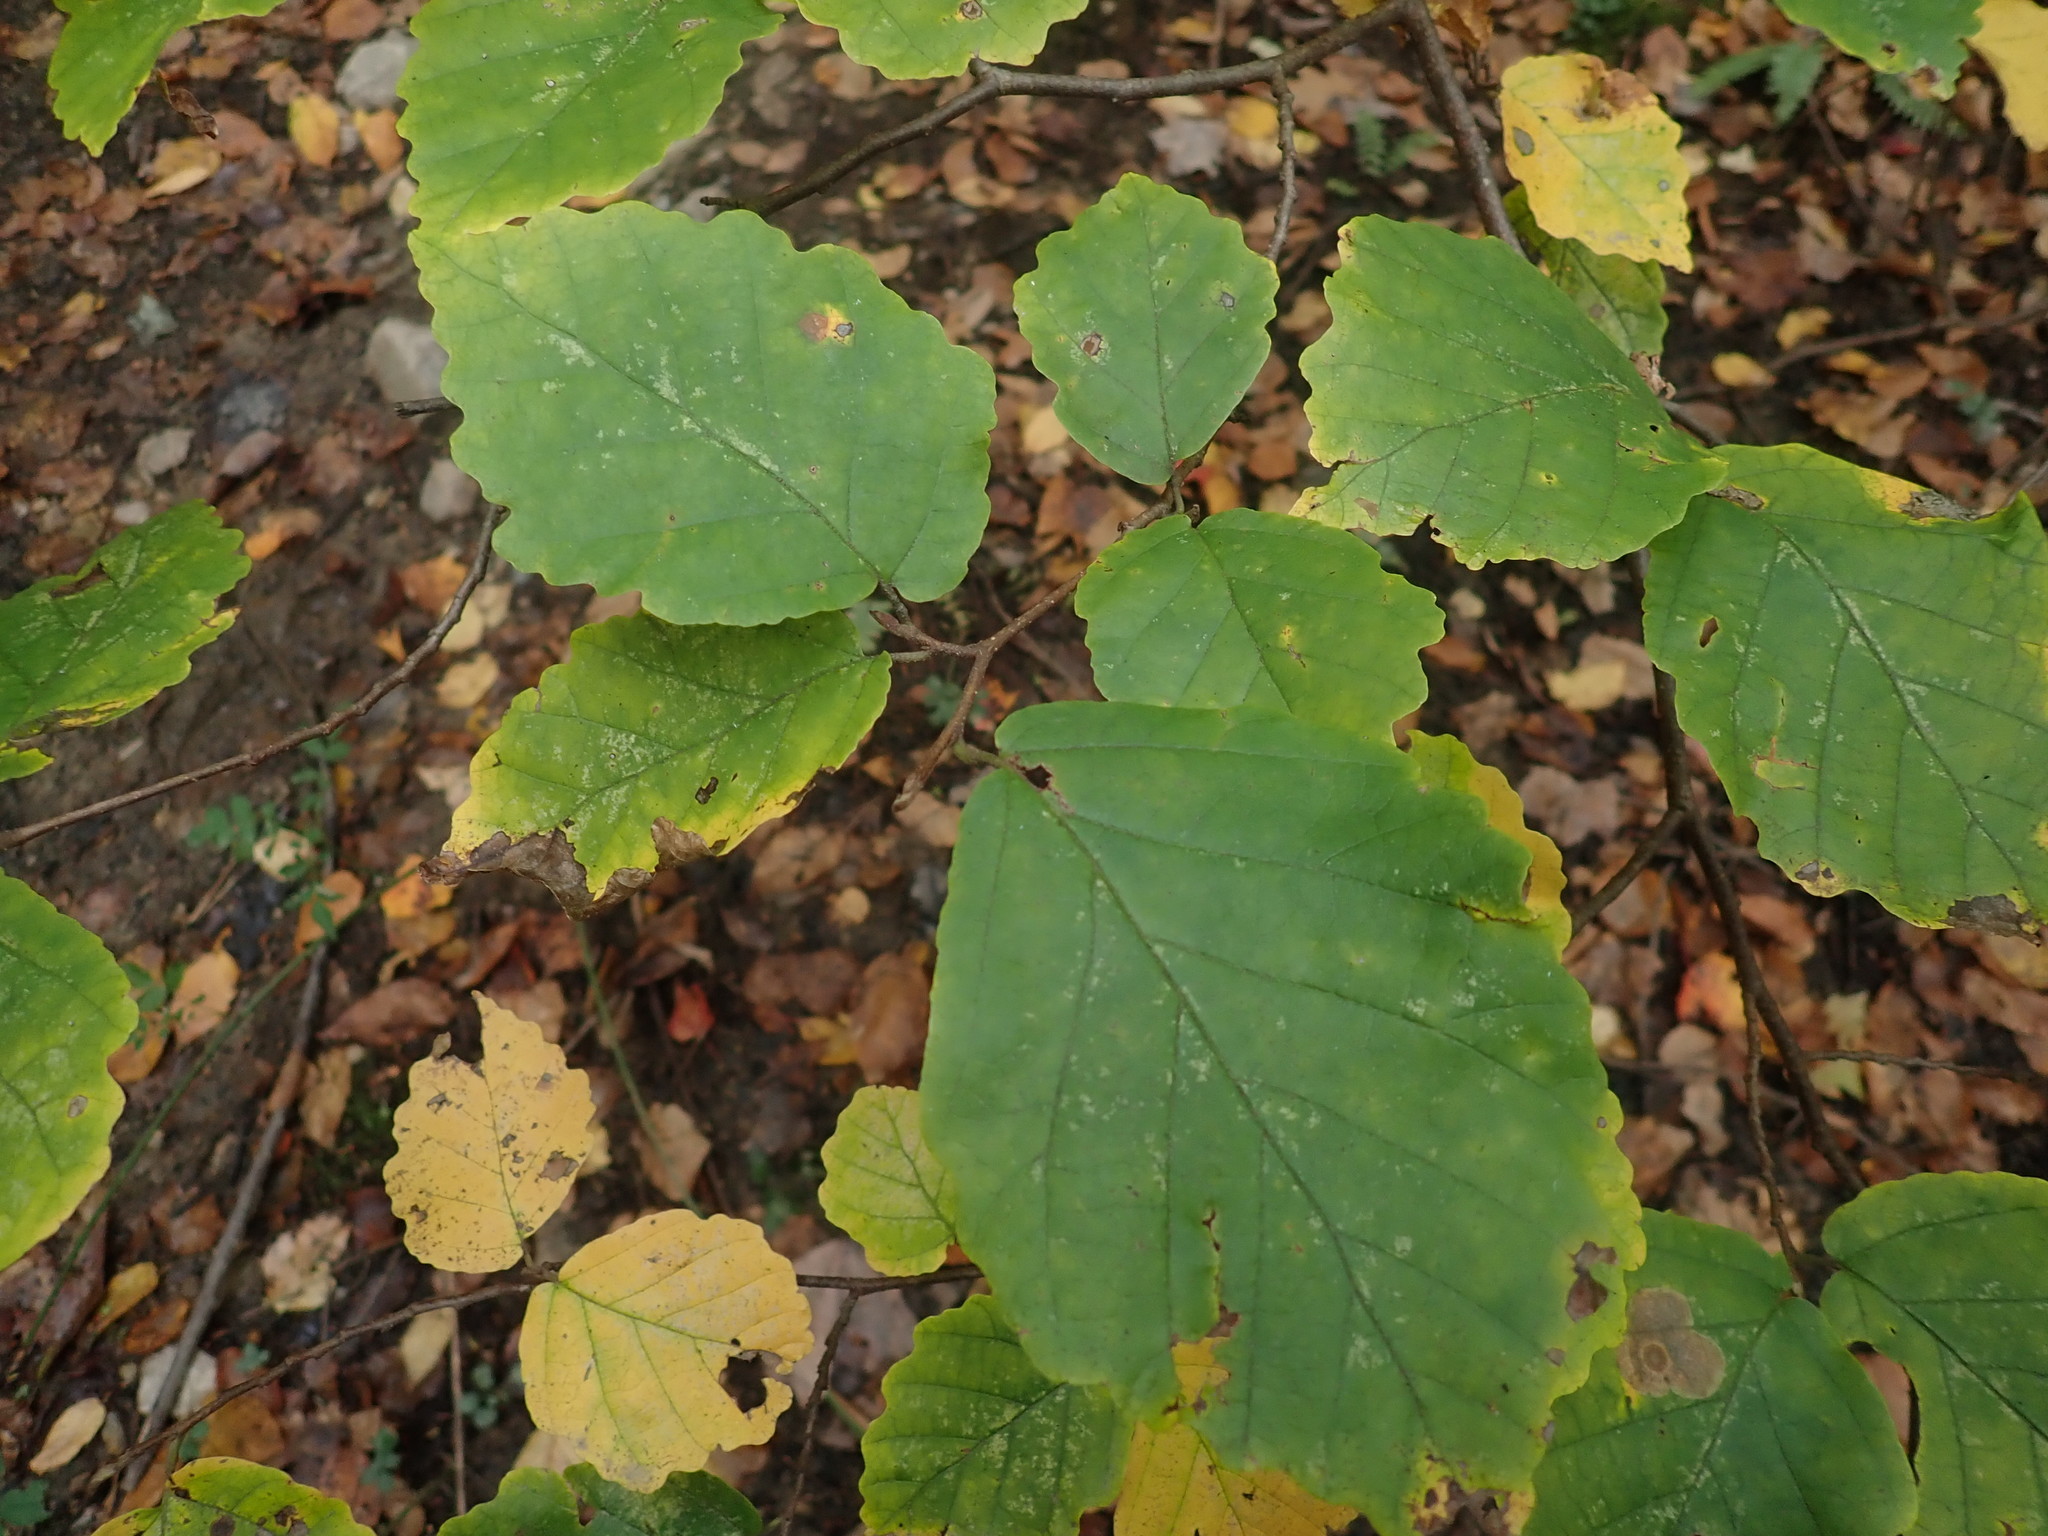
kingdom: Plantae
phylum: Tracheophyta
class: Magnoliopsida
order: Saxifragales
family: Hamamelidaceae
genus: Hamamelis
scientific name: Hamamelis virginiana
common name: Witch-hazel
